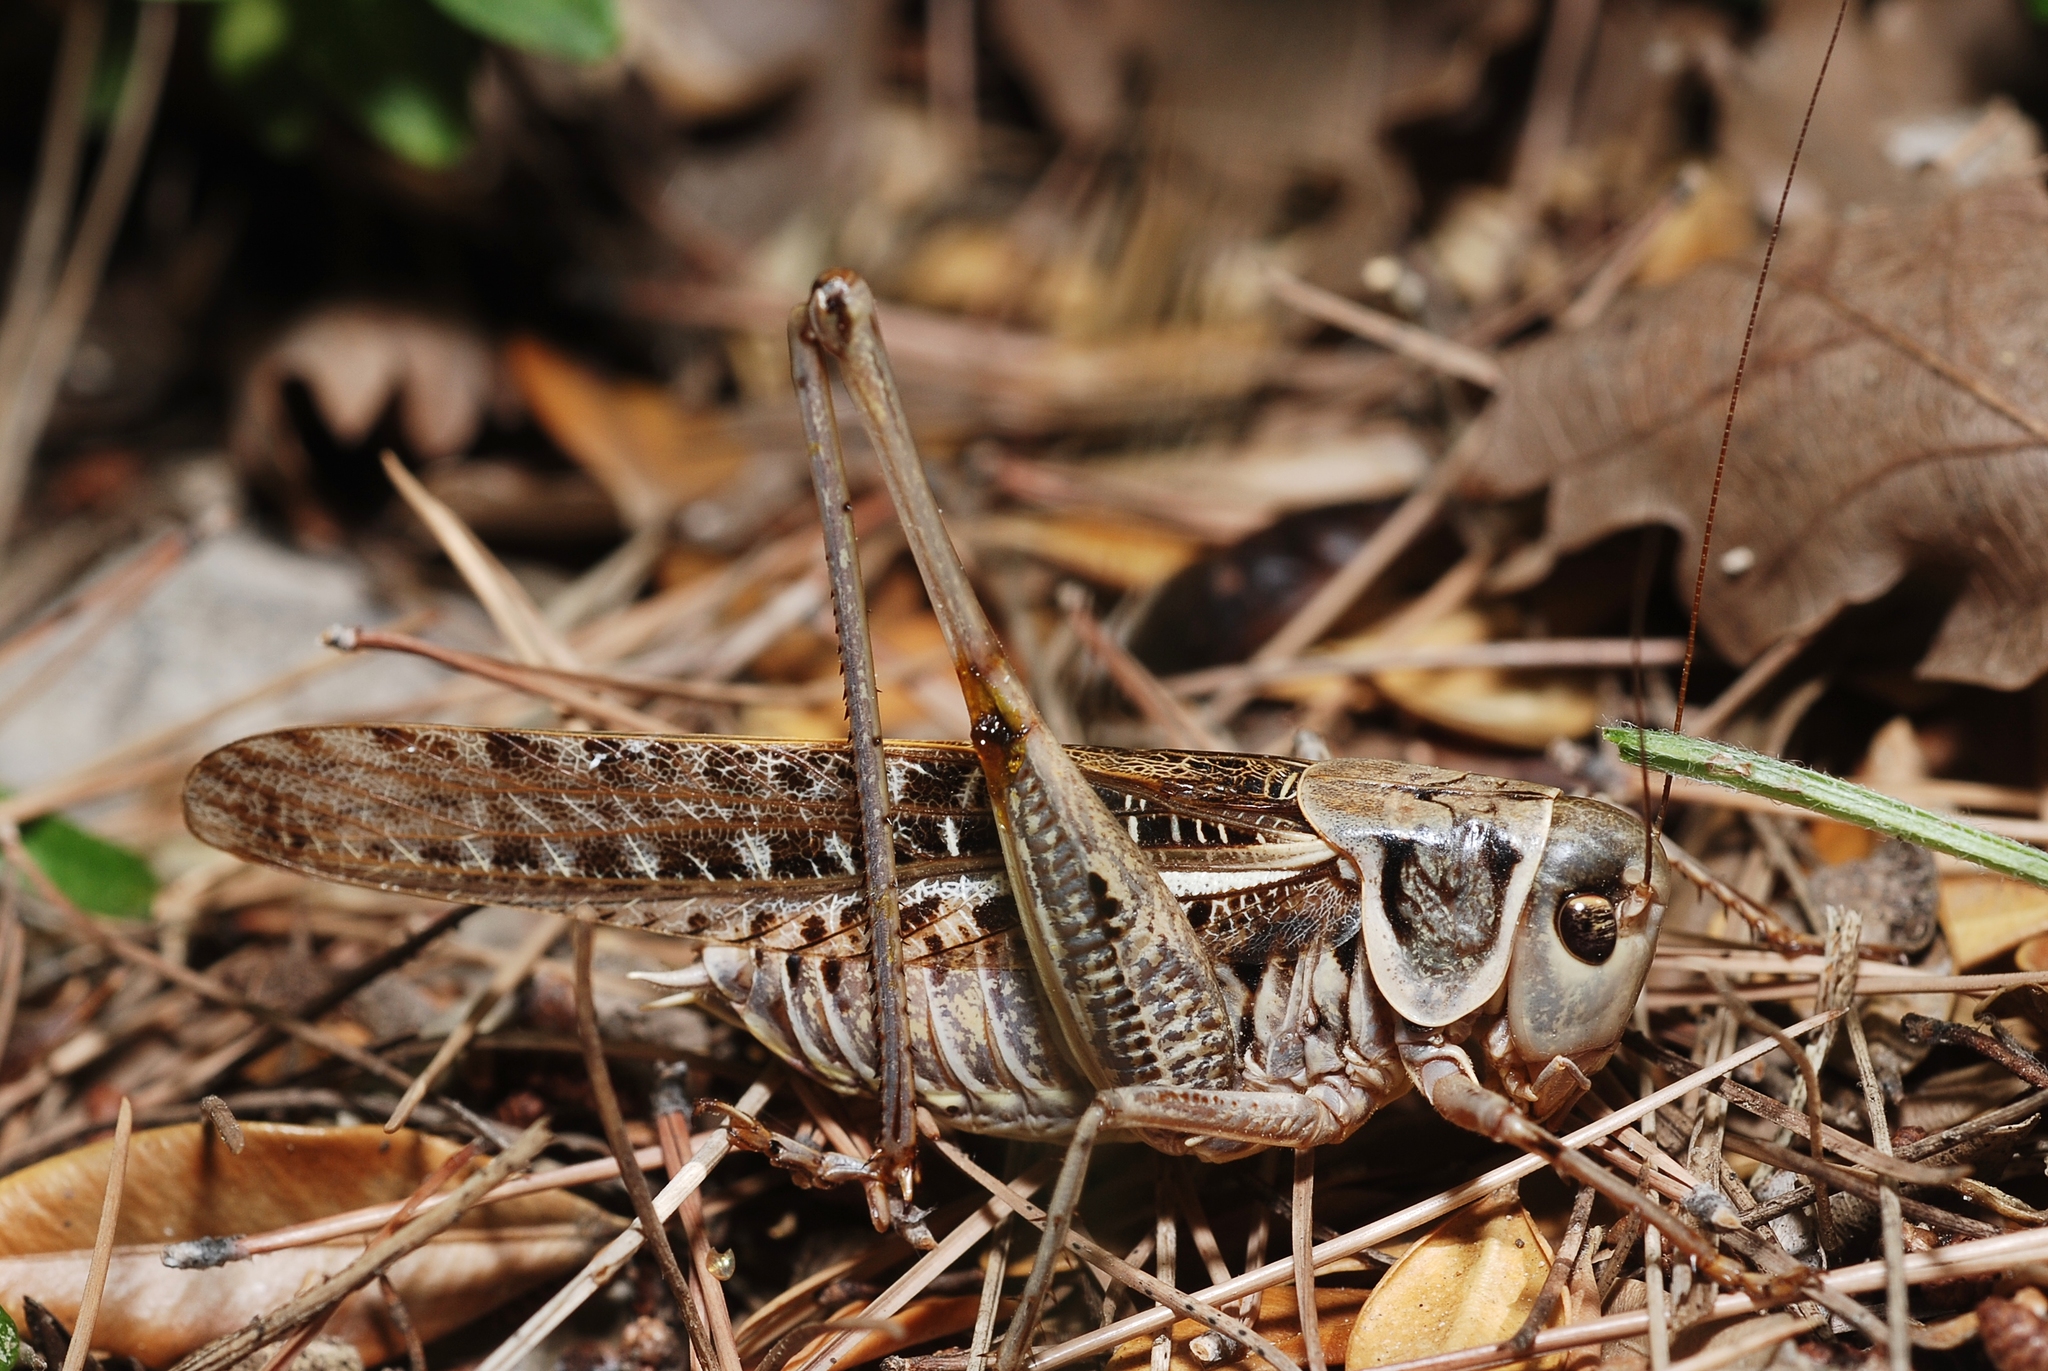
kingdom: Animalia
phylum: Arthropoda
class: Insecta
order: Orthoptera
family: Tettigoniidae
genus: Decticus
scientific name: Decticus albifrons
